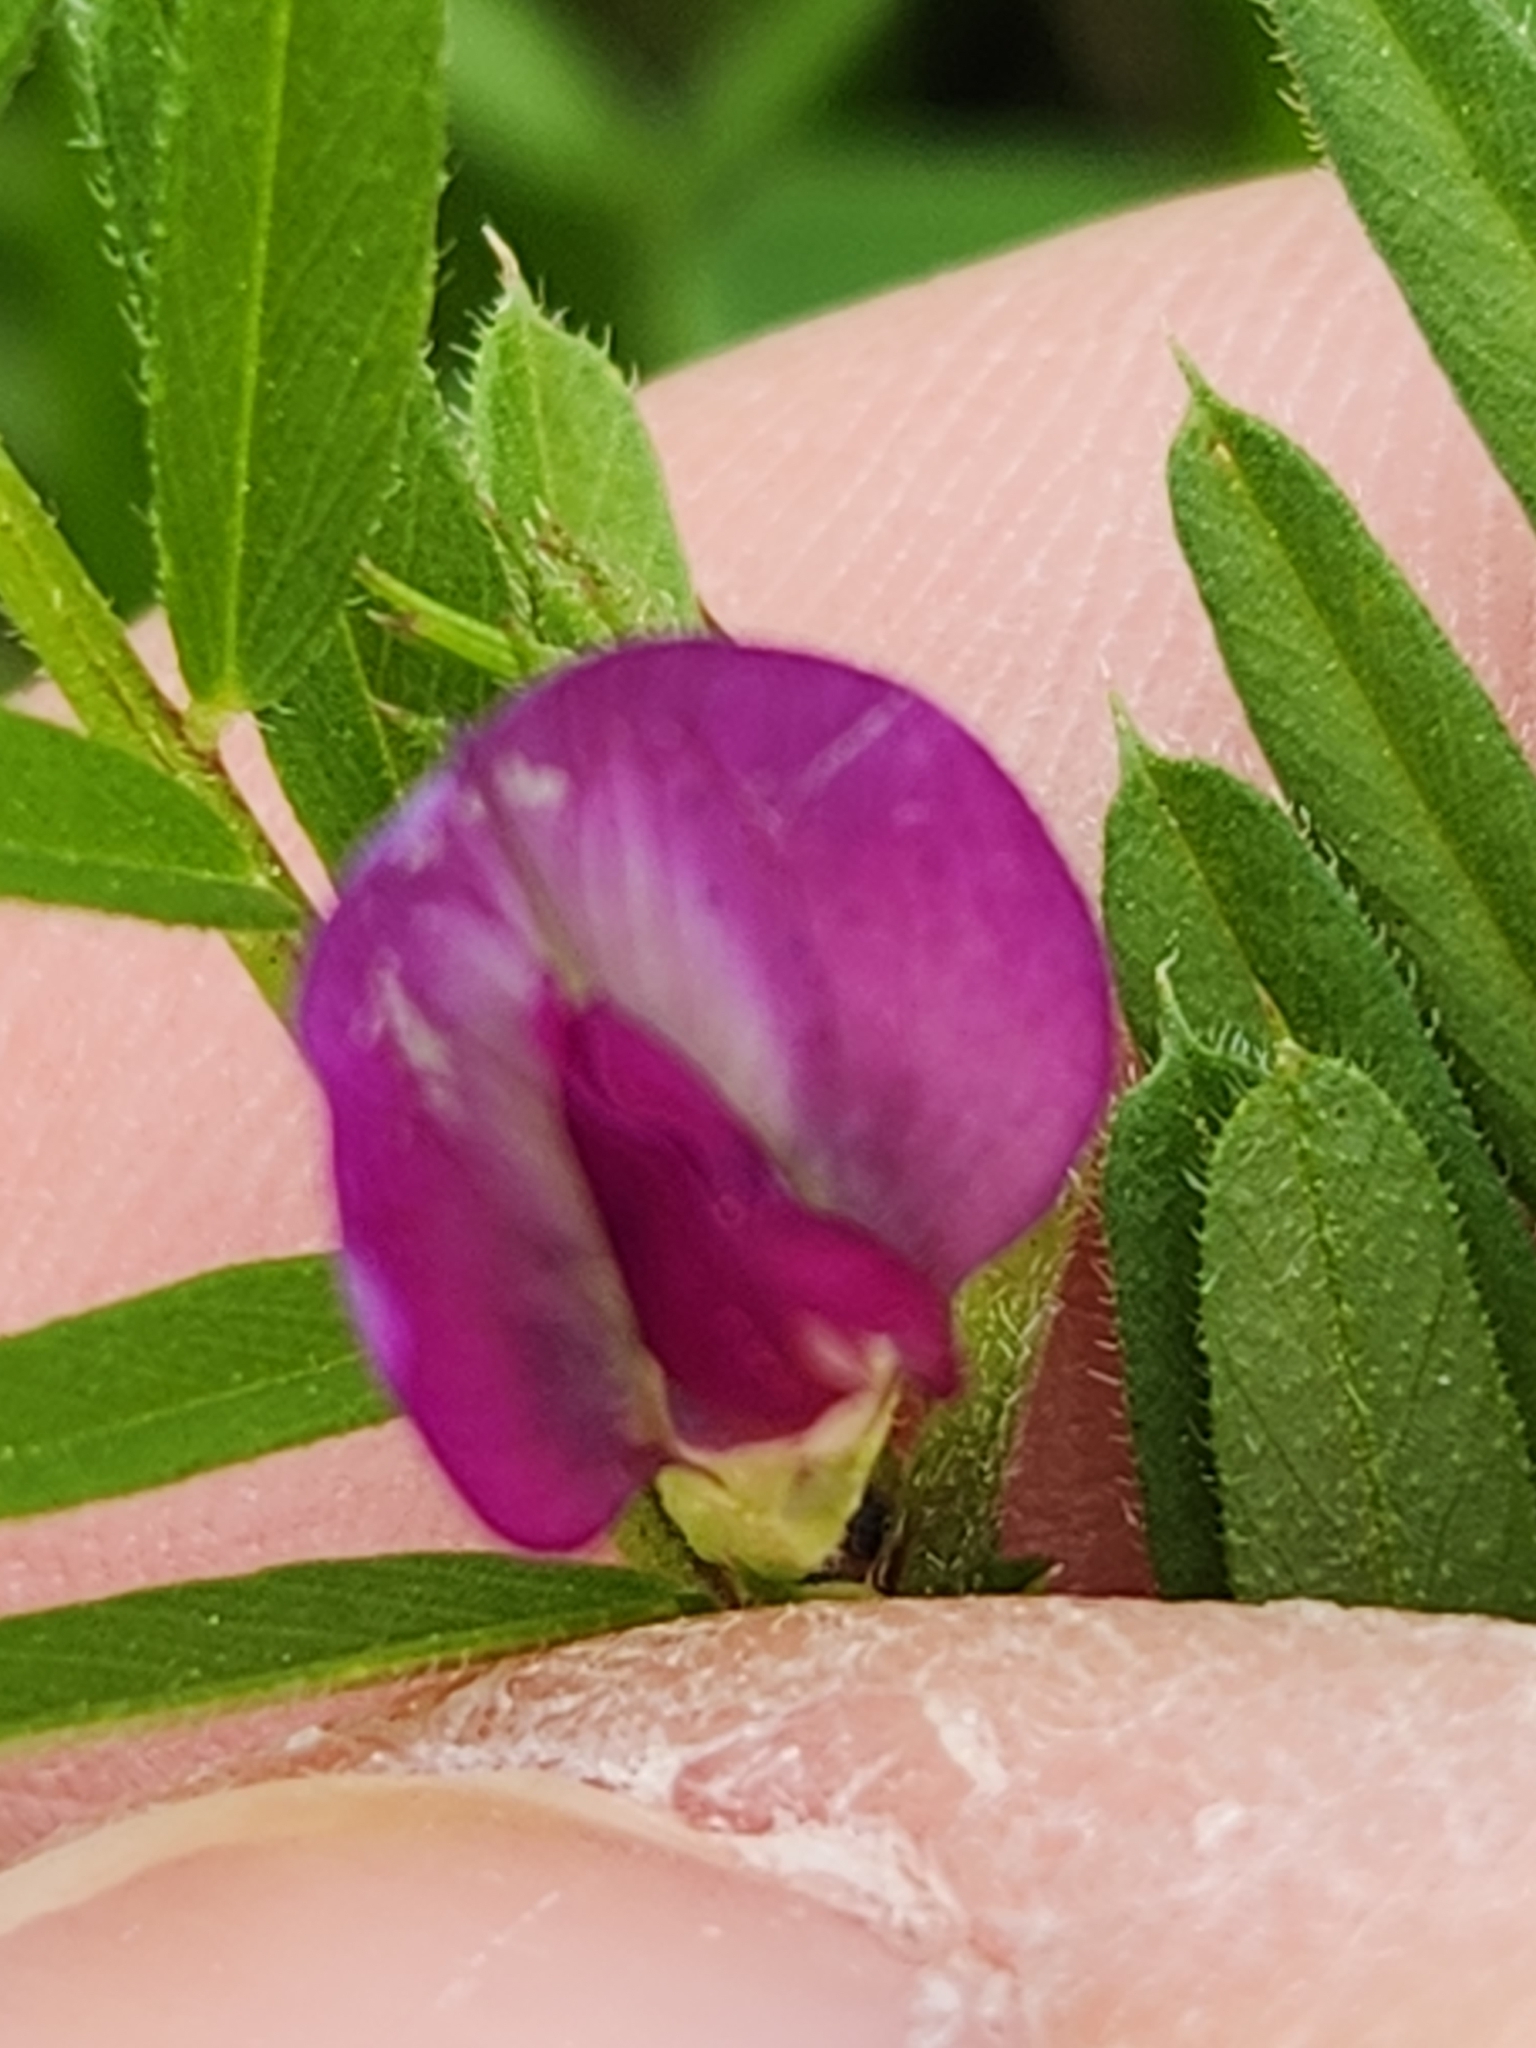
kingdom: Plantae
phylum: Tracheophyta
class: Magnoliopsida
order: Fabales
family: Fabaceae
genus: Vicia
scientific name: Vicia sativa
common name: Garden vetch
